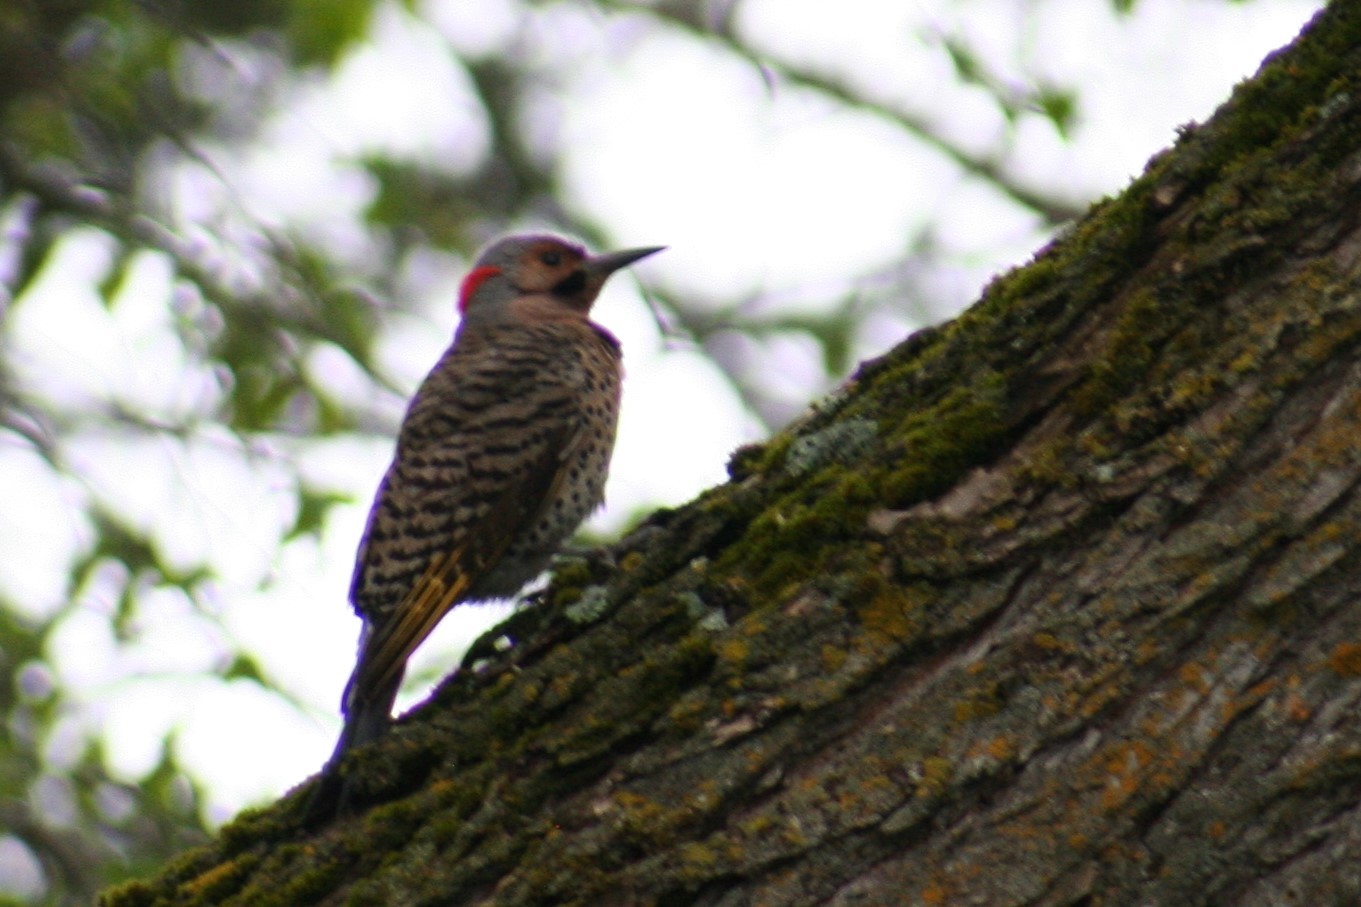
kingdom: Animalia
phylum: Chordata
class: Aves
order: Piciformes
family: Picidae
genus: Colaptes
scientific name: Colaptes auratus
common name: Northern flicker
